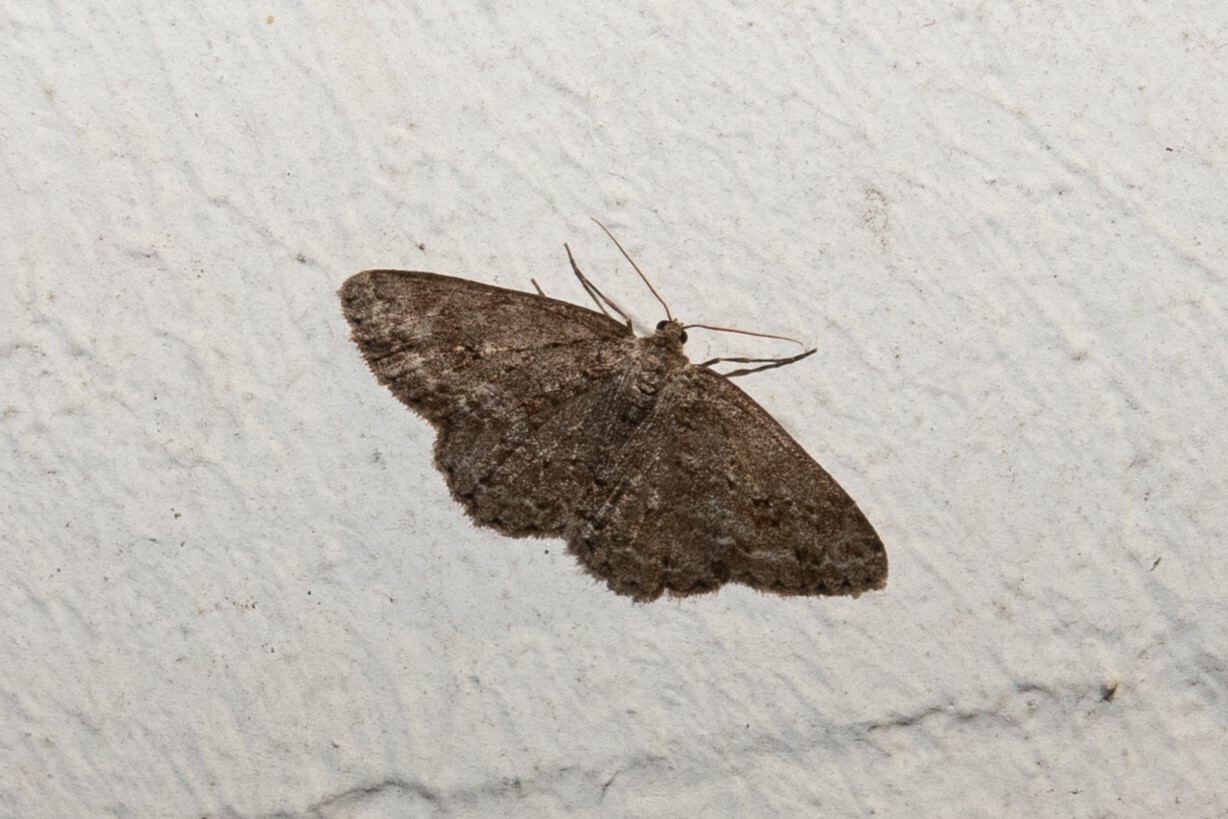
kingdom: Animalia
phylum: Arthropoda
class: Insecta
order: Lepidoptera
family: Geometridae
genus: Ectropis
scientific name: Ectropis crepuscularia
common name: Engrailed
